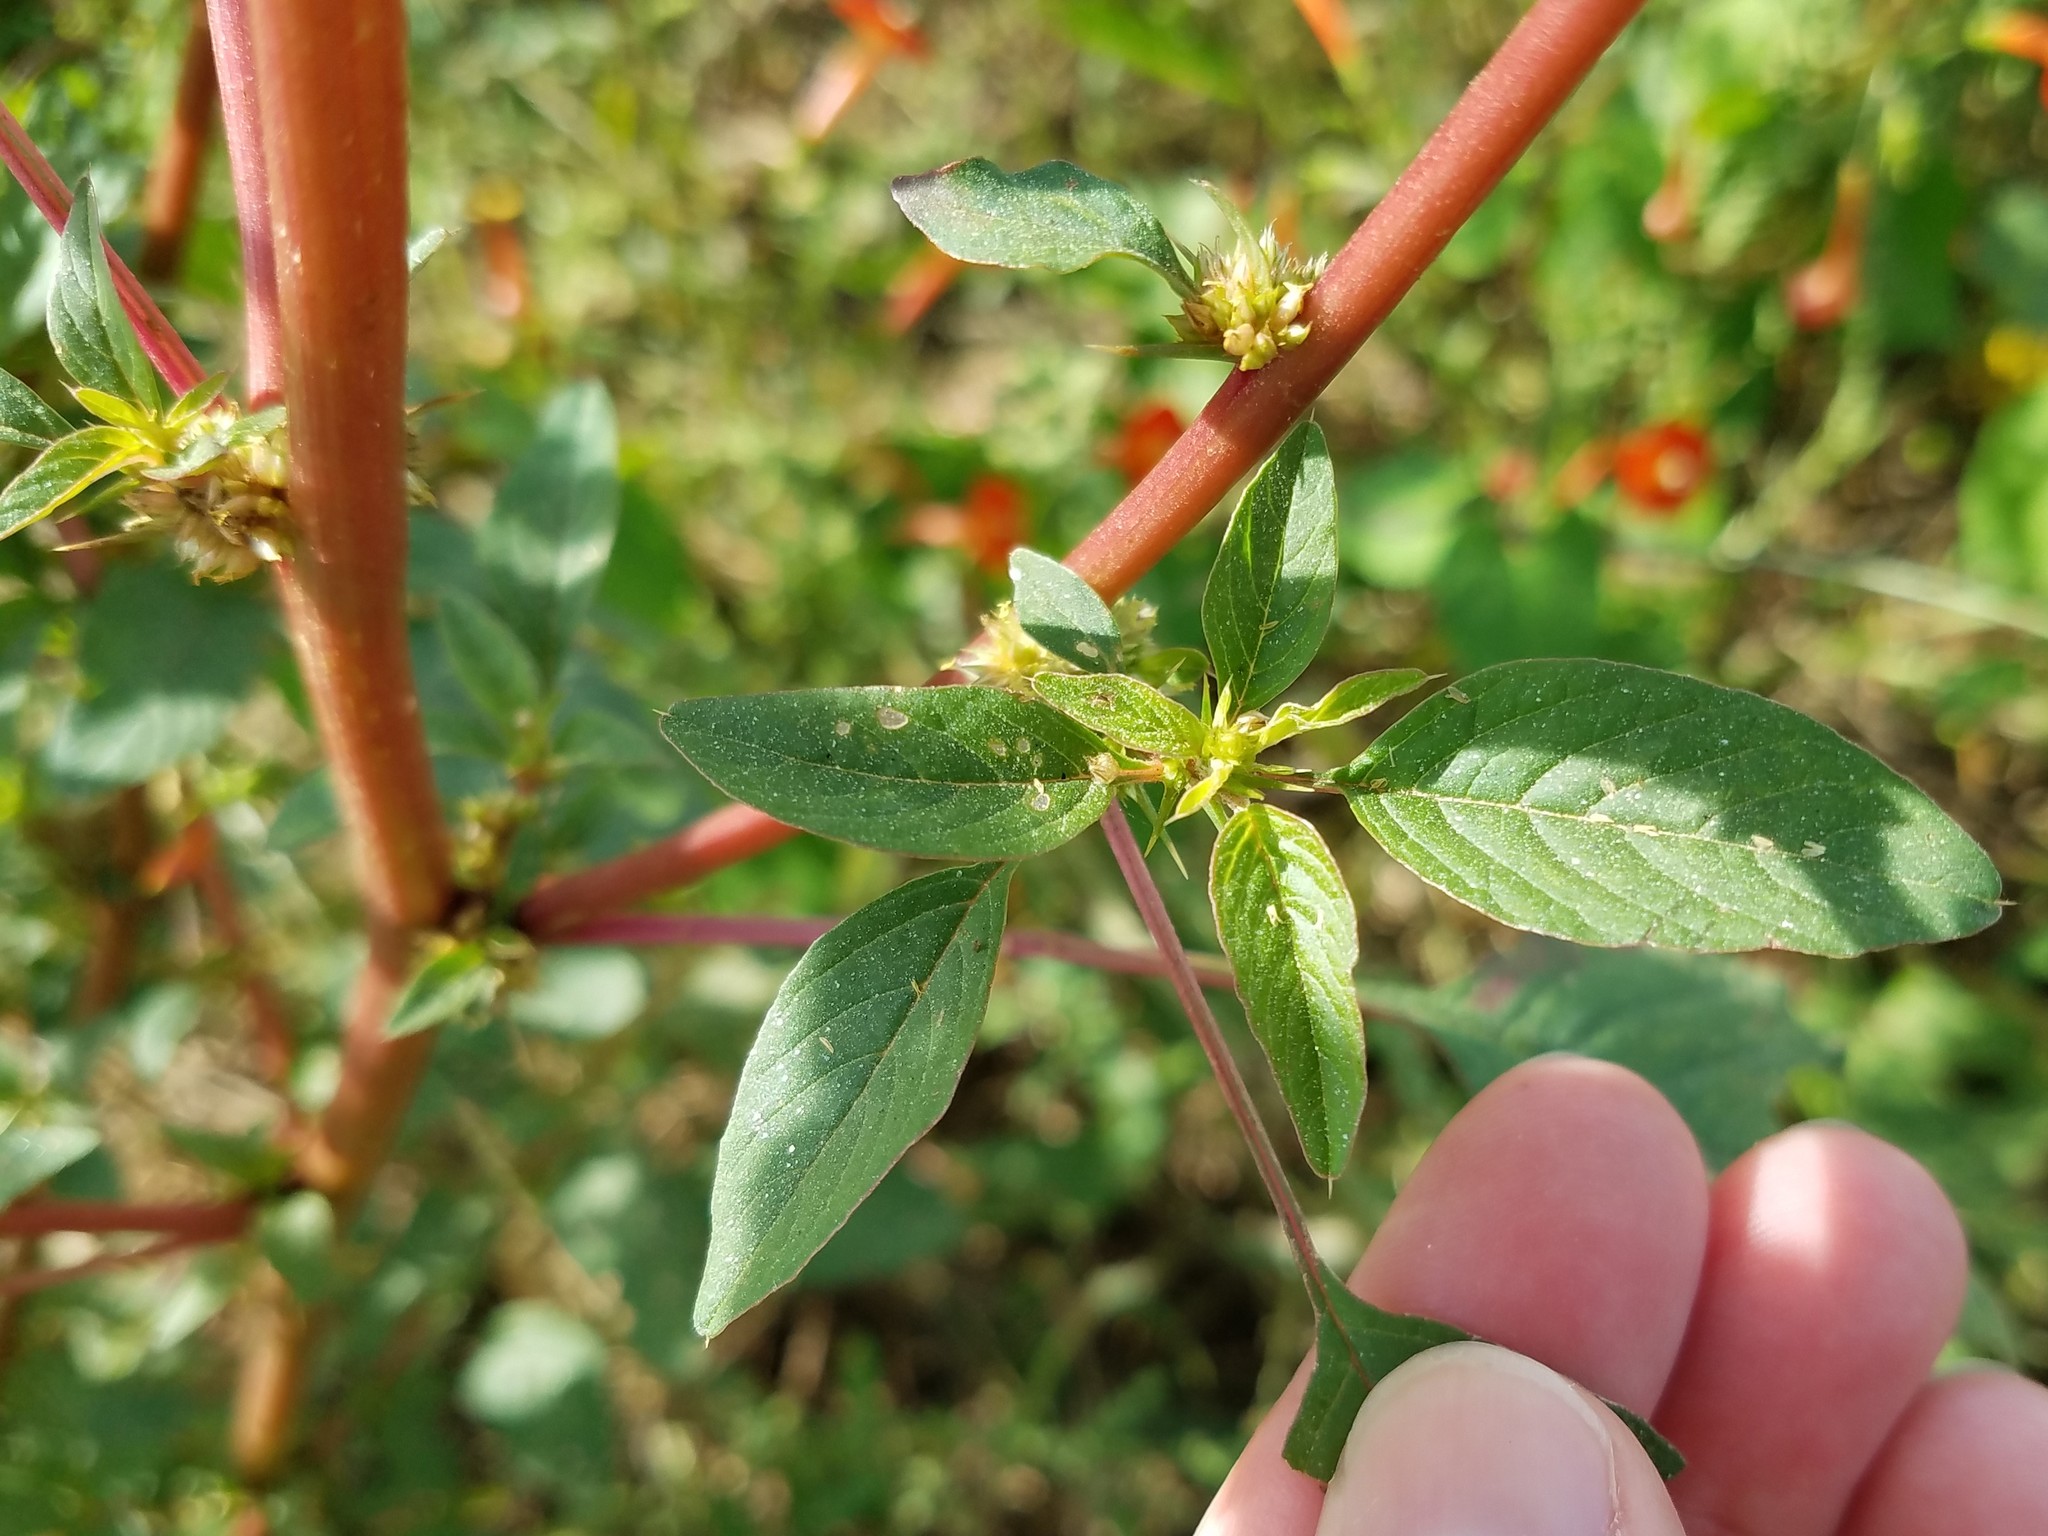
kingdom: Plantae
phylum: Tracheophyta
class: Magnoliopsida
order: Caryophyllales
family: Amaranthaceae
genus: Amaranthus
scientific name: Amaranthus spinosus
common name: Spiny amaranth
